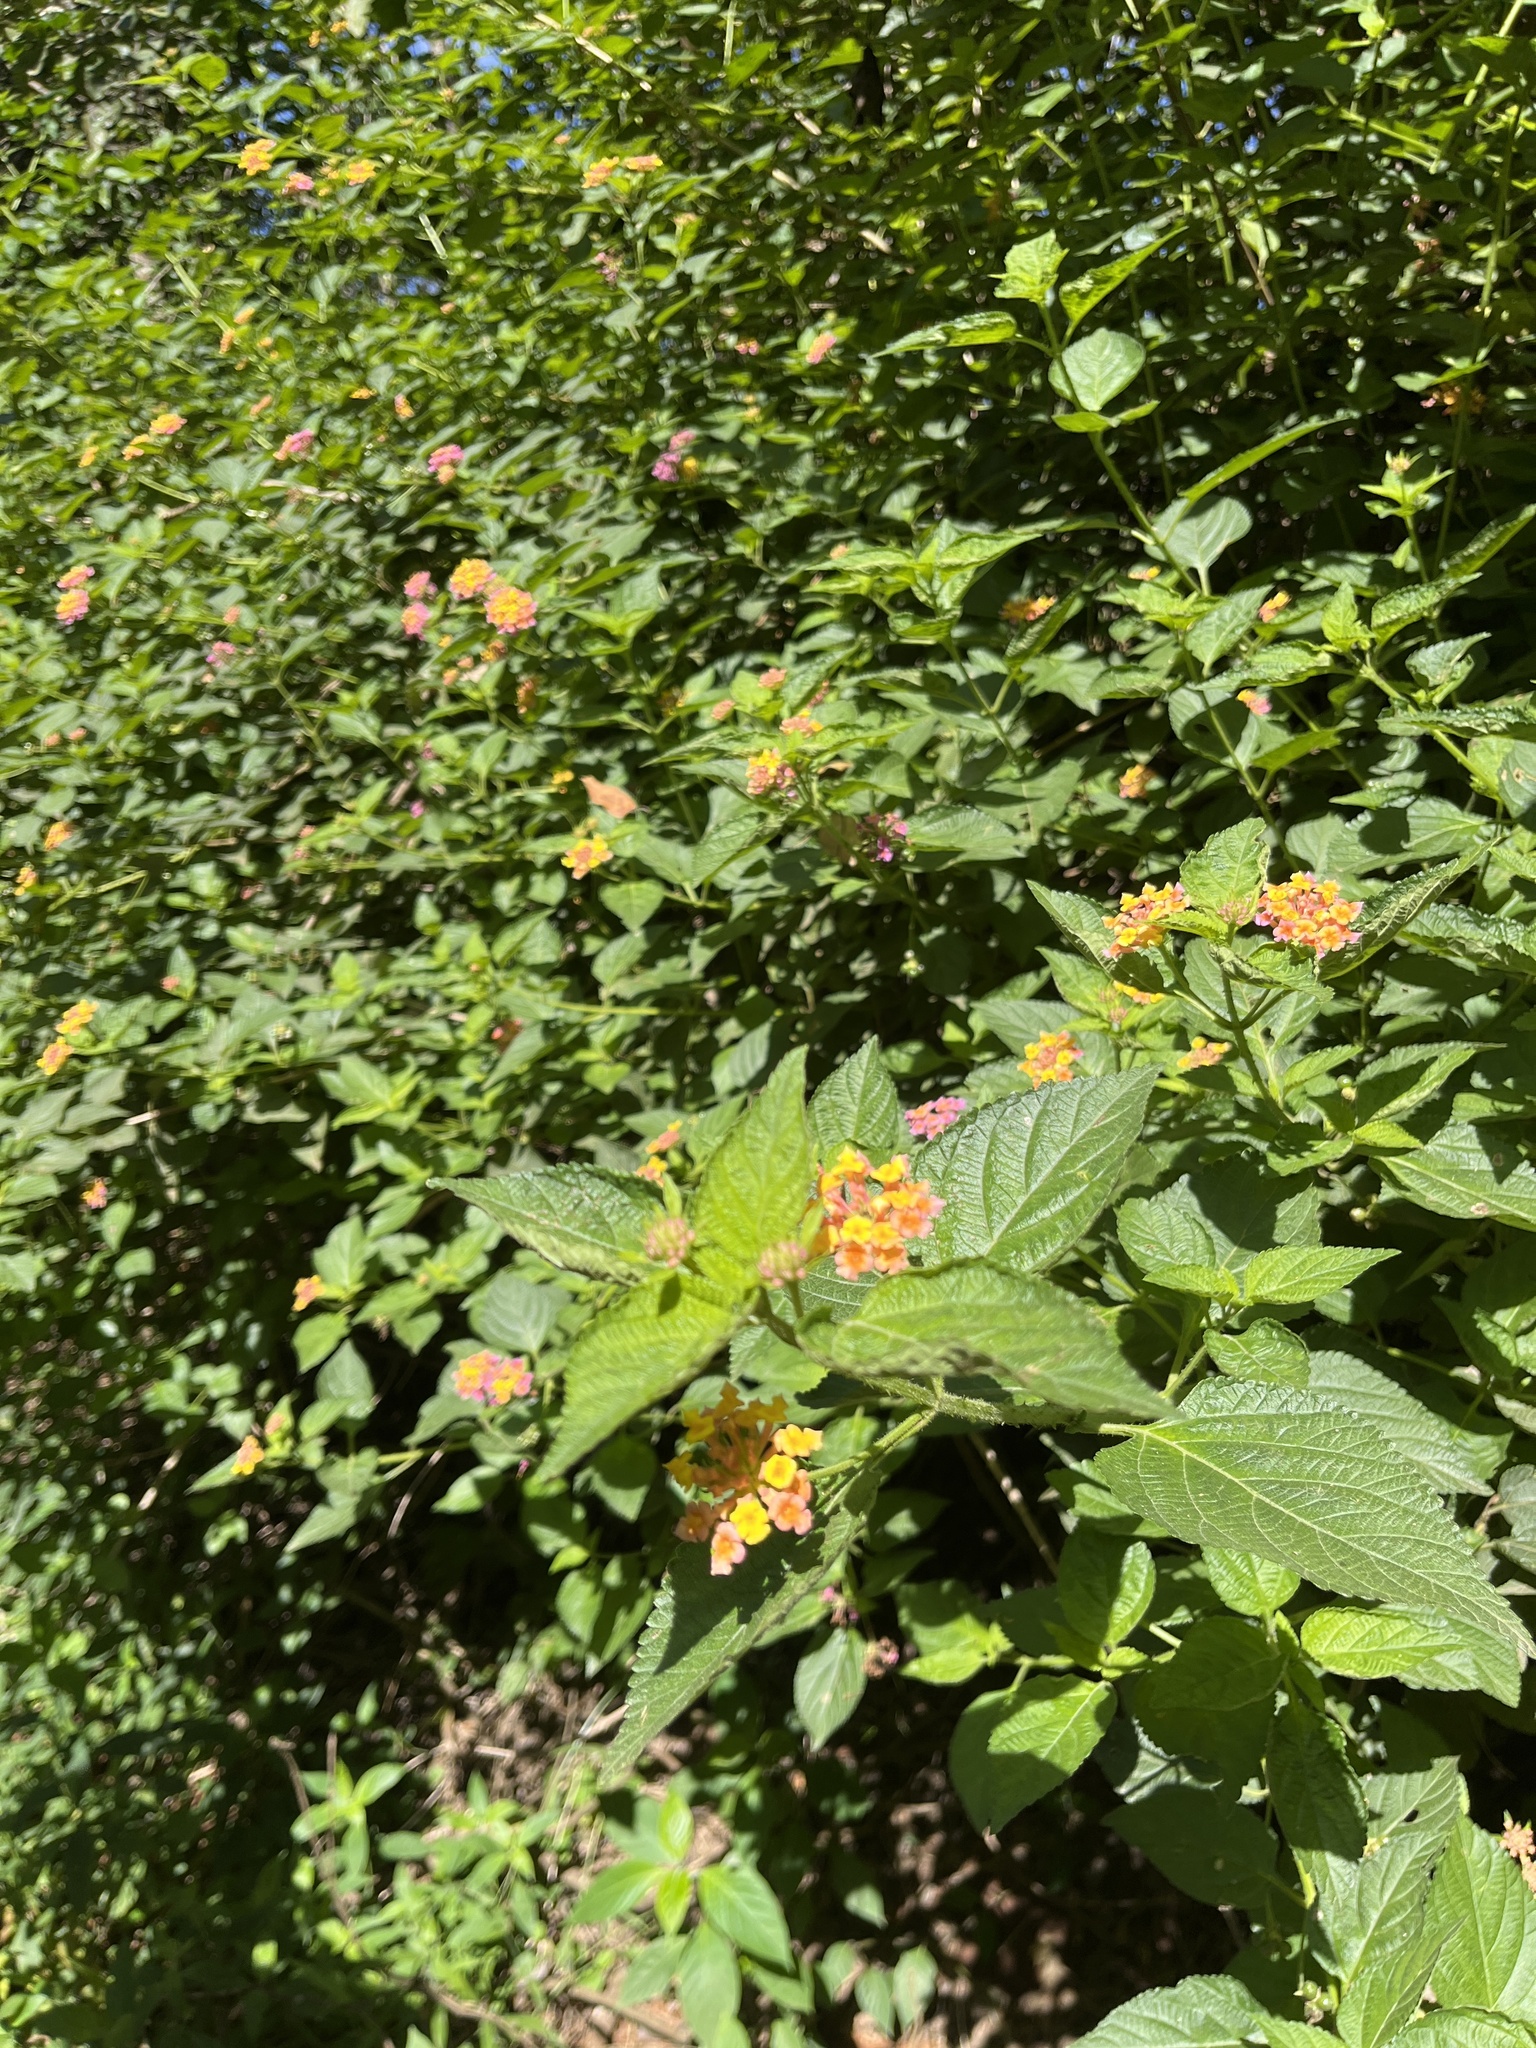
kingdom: Plantae
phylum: Tracheophyta
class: Magnoliopsida
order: Lamiales
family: Verbenaceae
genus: Lantana
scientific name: Lantana camara
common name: Lantana
